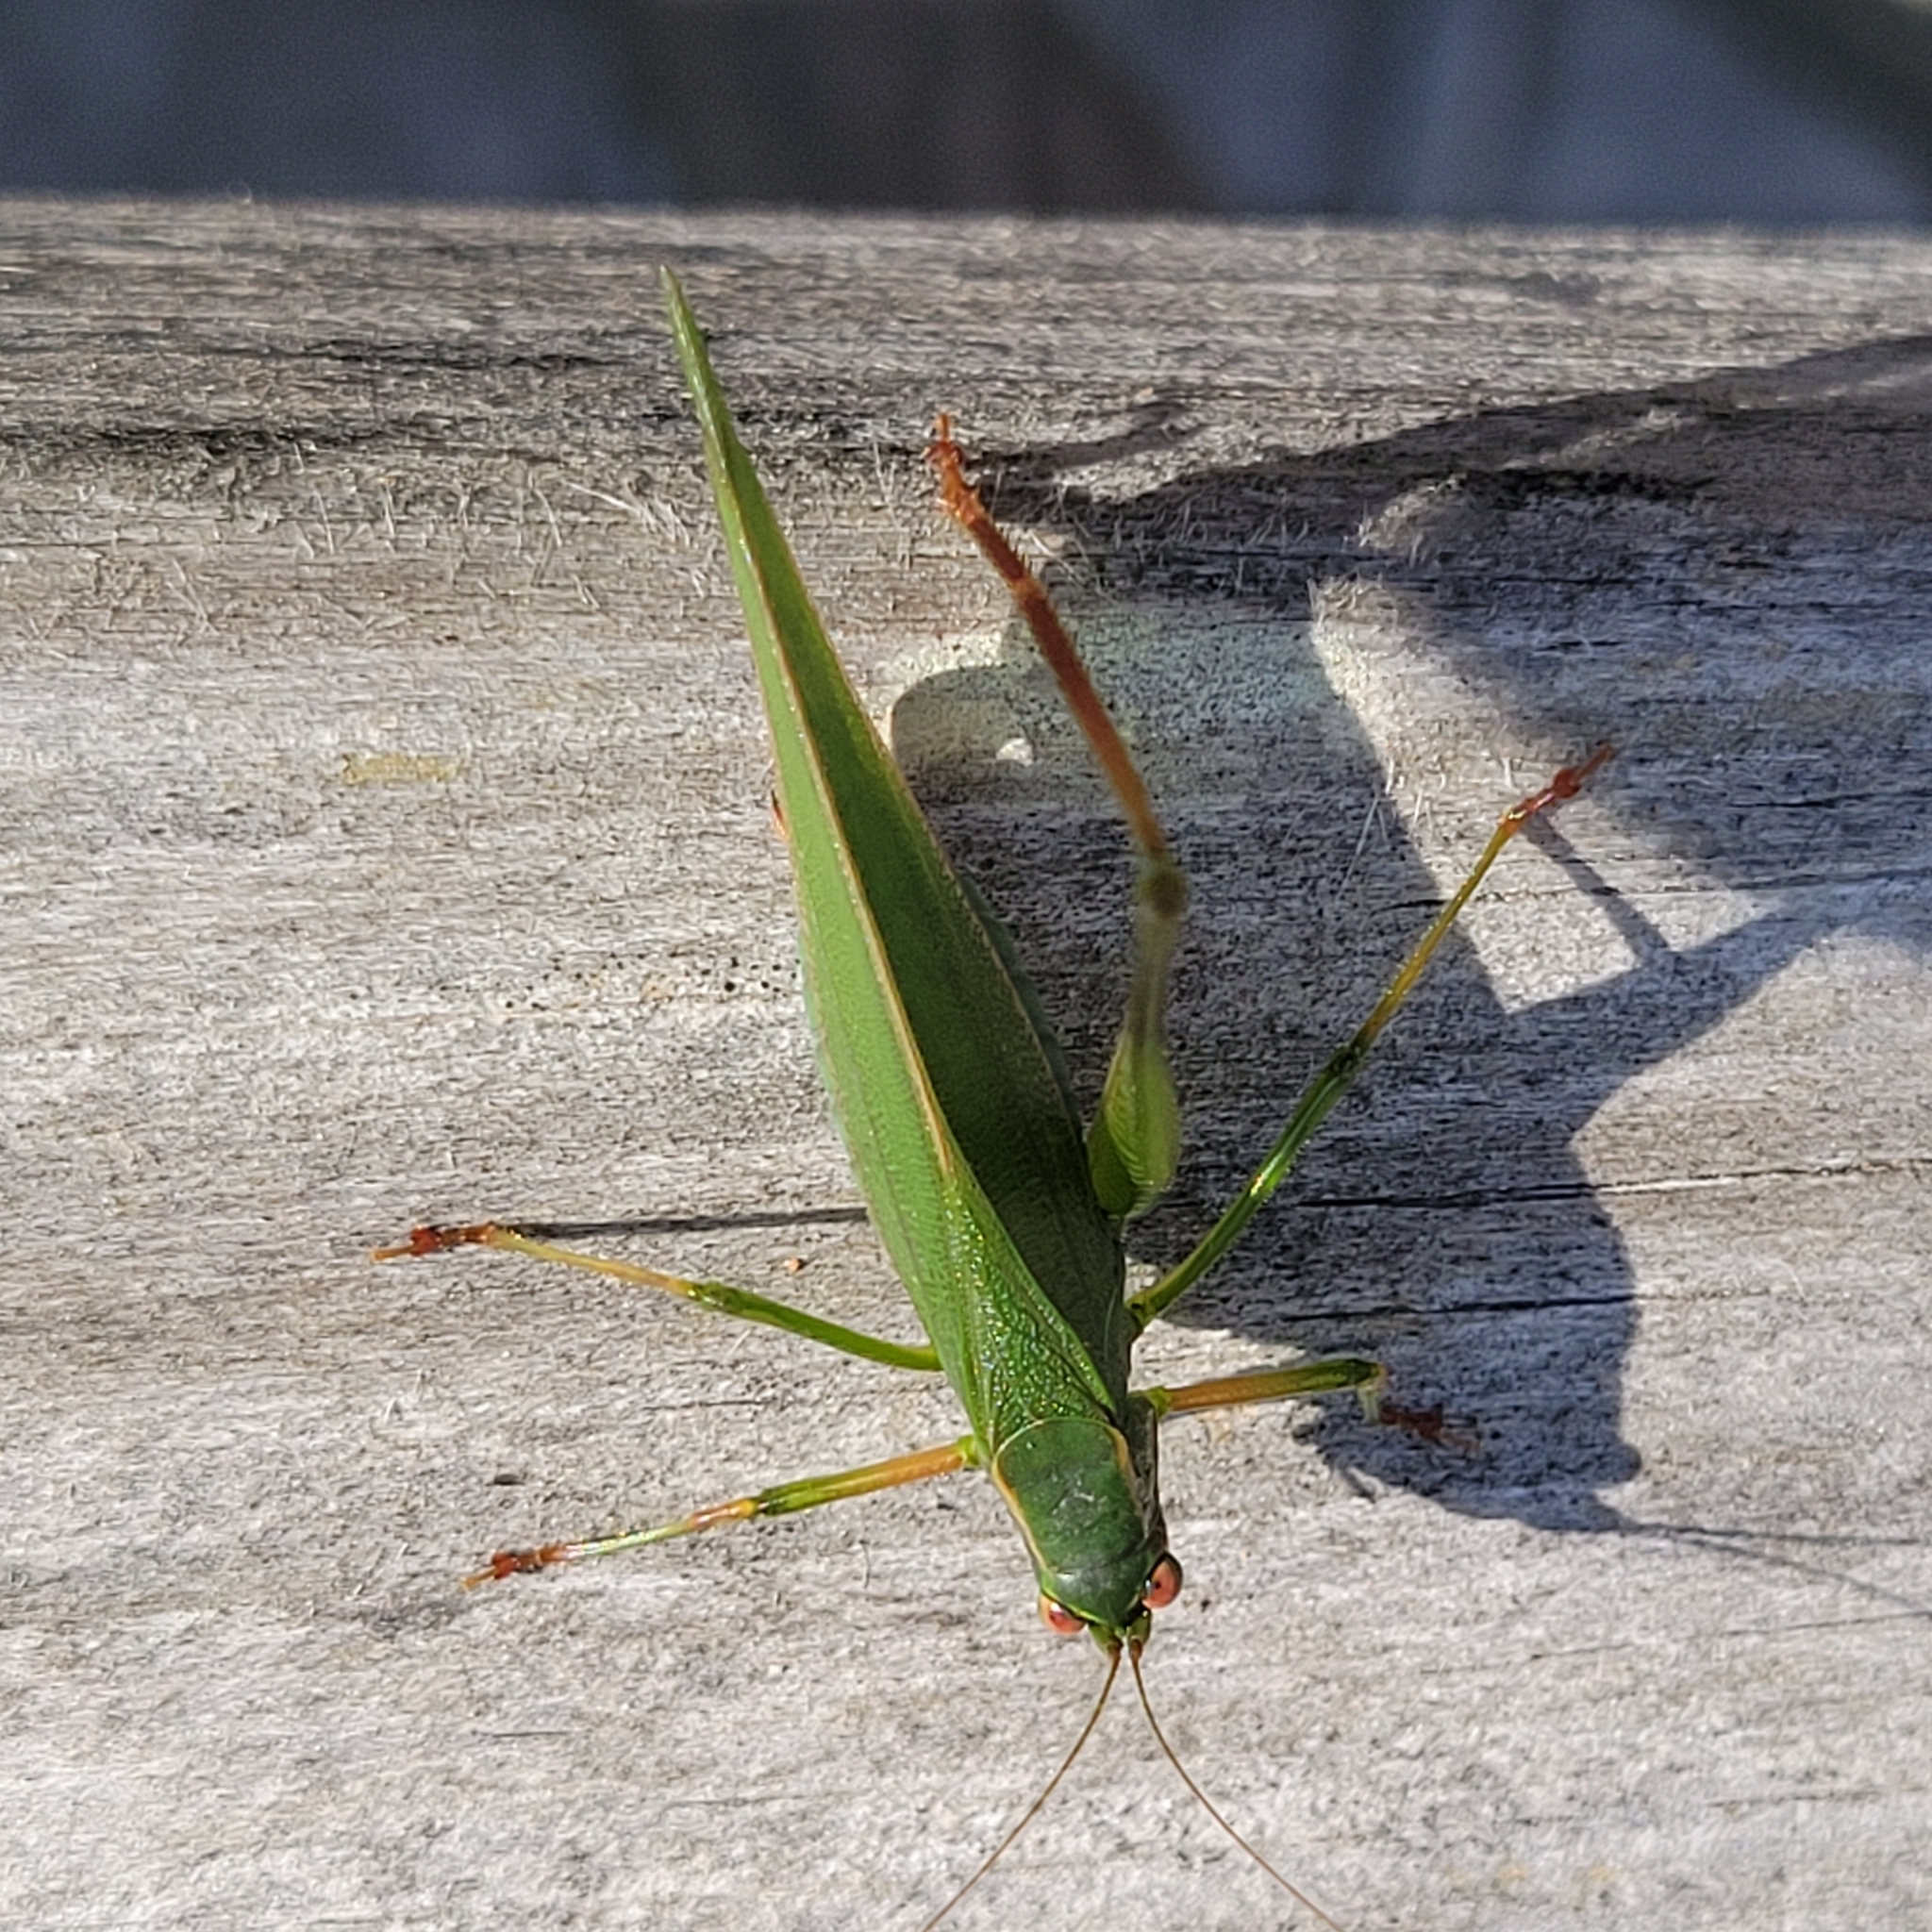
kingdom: Animalia
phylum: Arthropoda
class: Insecta
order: Orthoptera
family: Tettigoniidae
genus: Scudderia
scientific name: Scudderia furcata
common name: Fork-tailed bush katydid
